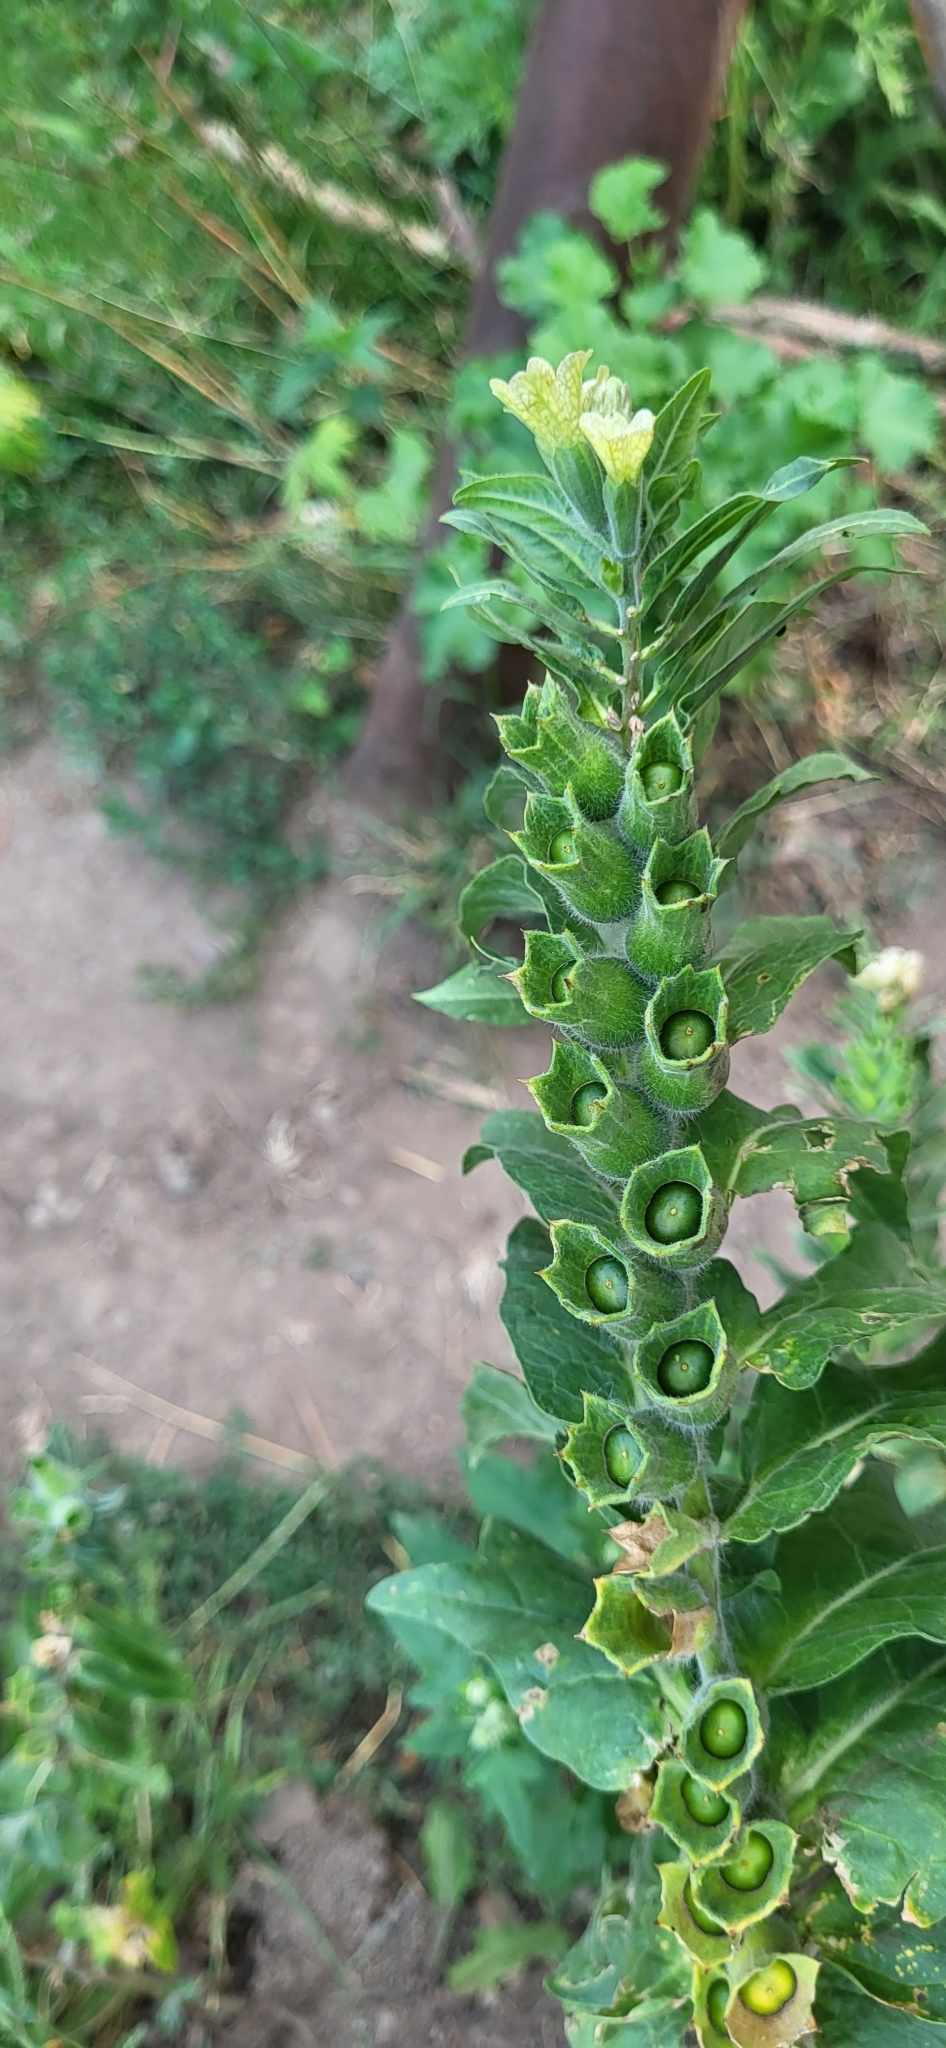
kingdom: Plantae
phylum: Tracheophyta
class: Magnoliopsida
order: Solanales
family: Solanaceae
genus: Hyoscyamus
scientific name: Hyoscyamus niger
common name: Henbane
